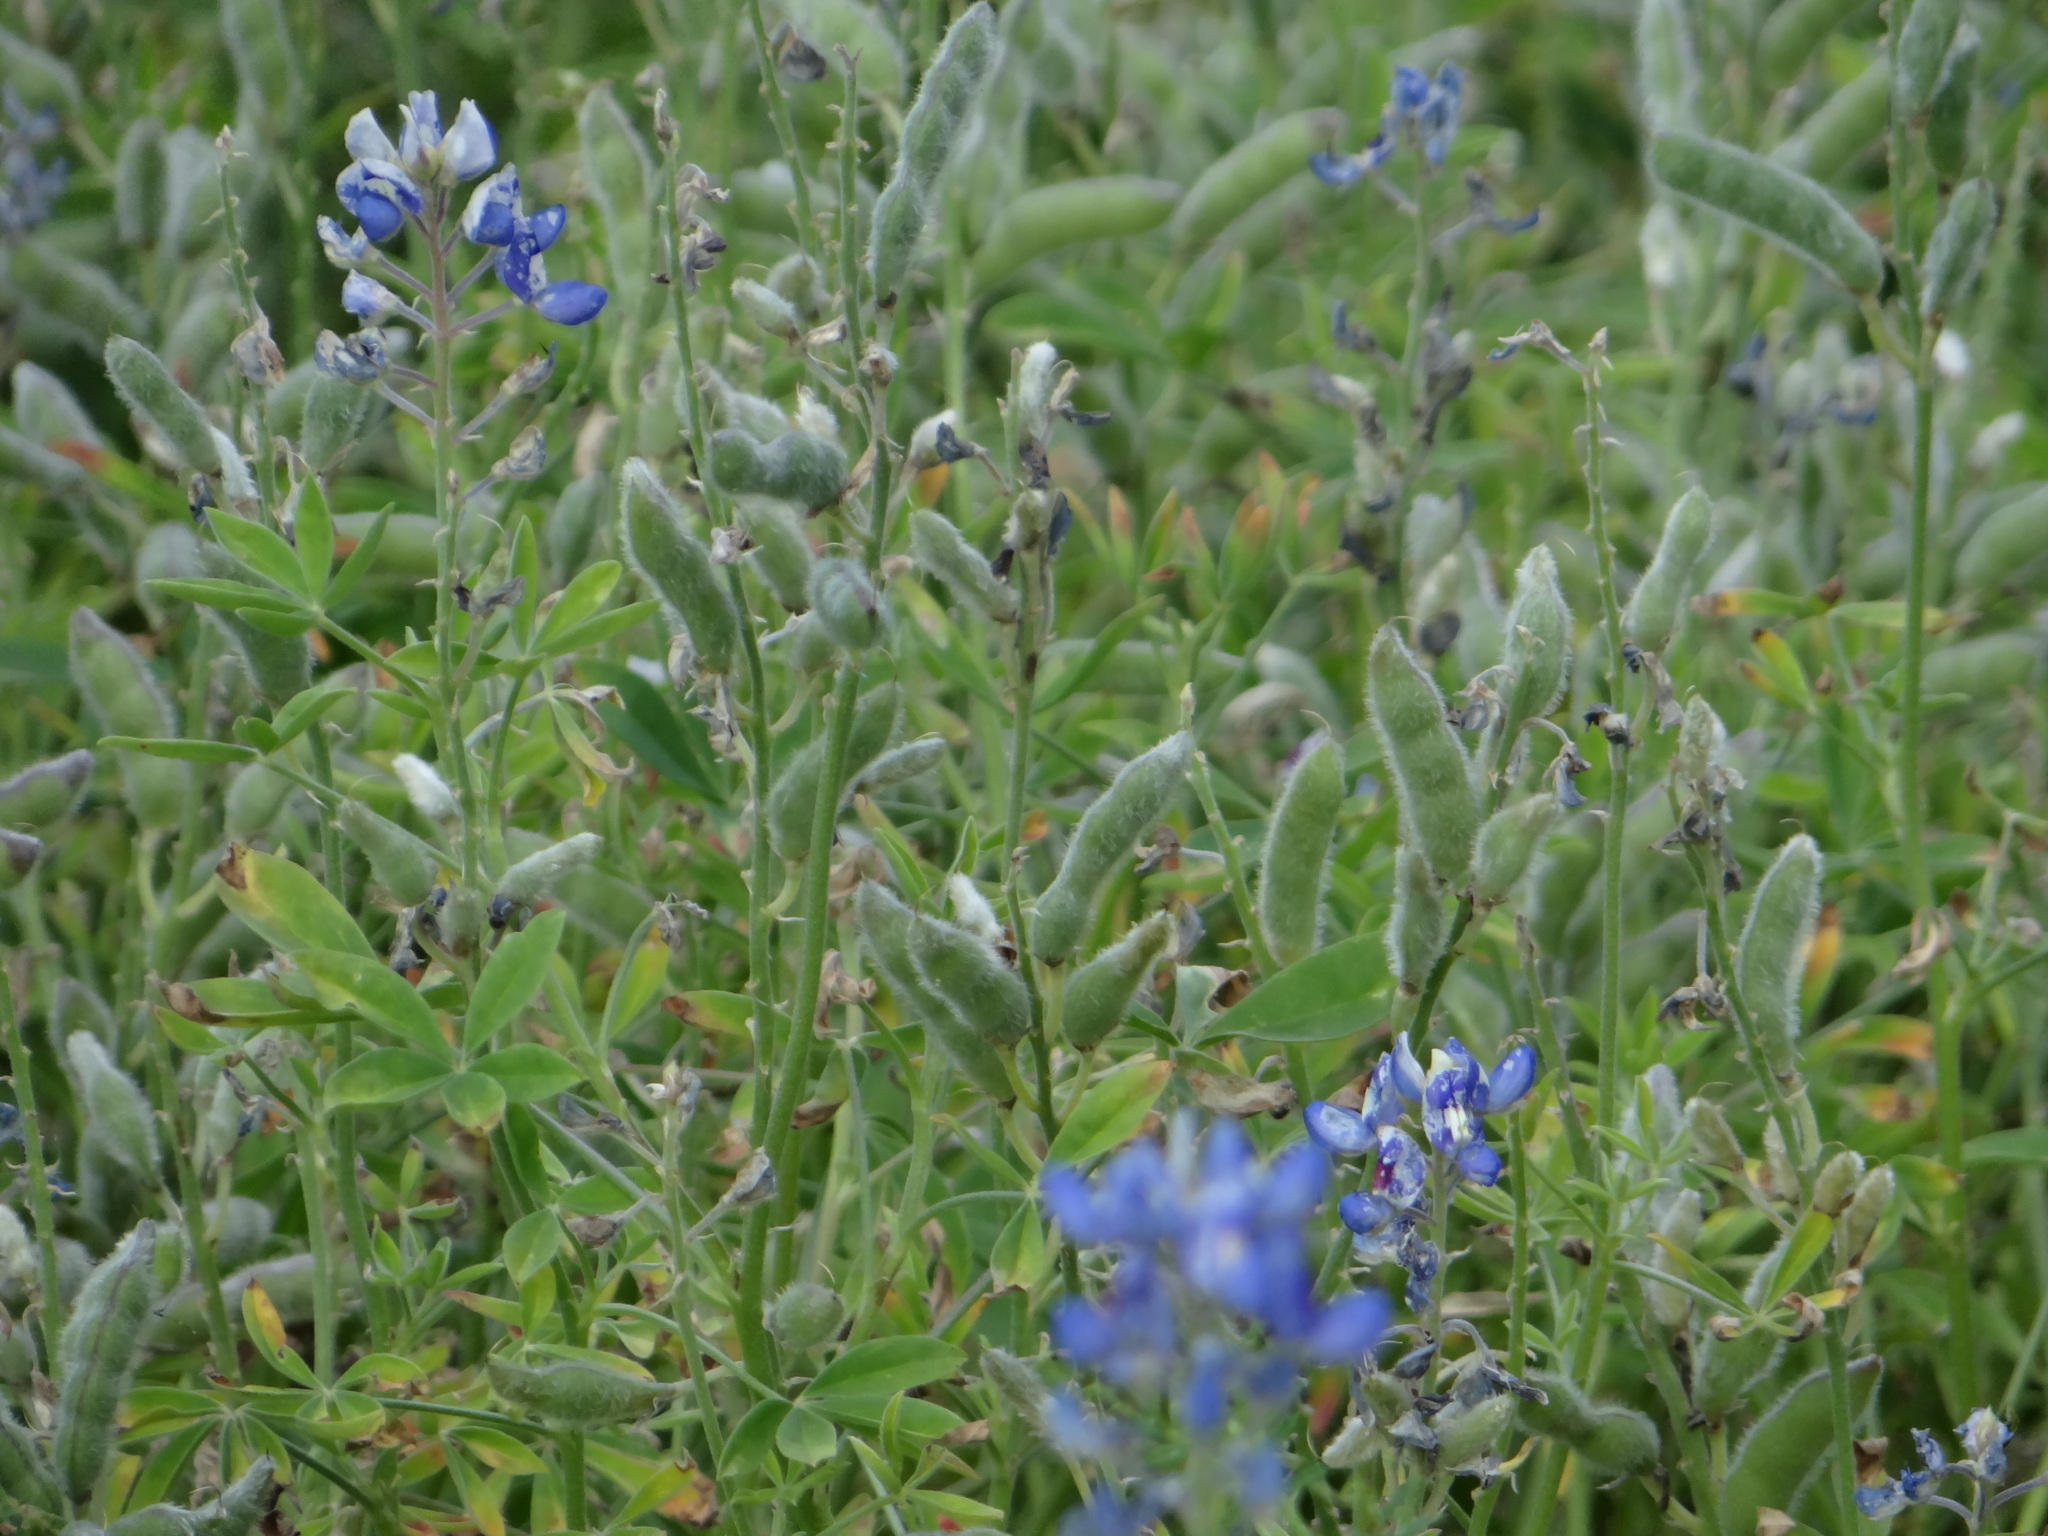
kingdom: Plantae
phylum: Tracheophyta
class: Magnoliopsida
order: Fabales
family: Fabaceae
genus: Lupinus
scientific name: Lupinus texensis
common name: Texas bluebonnet
